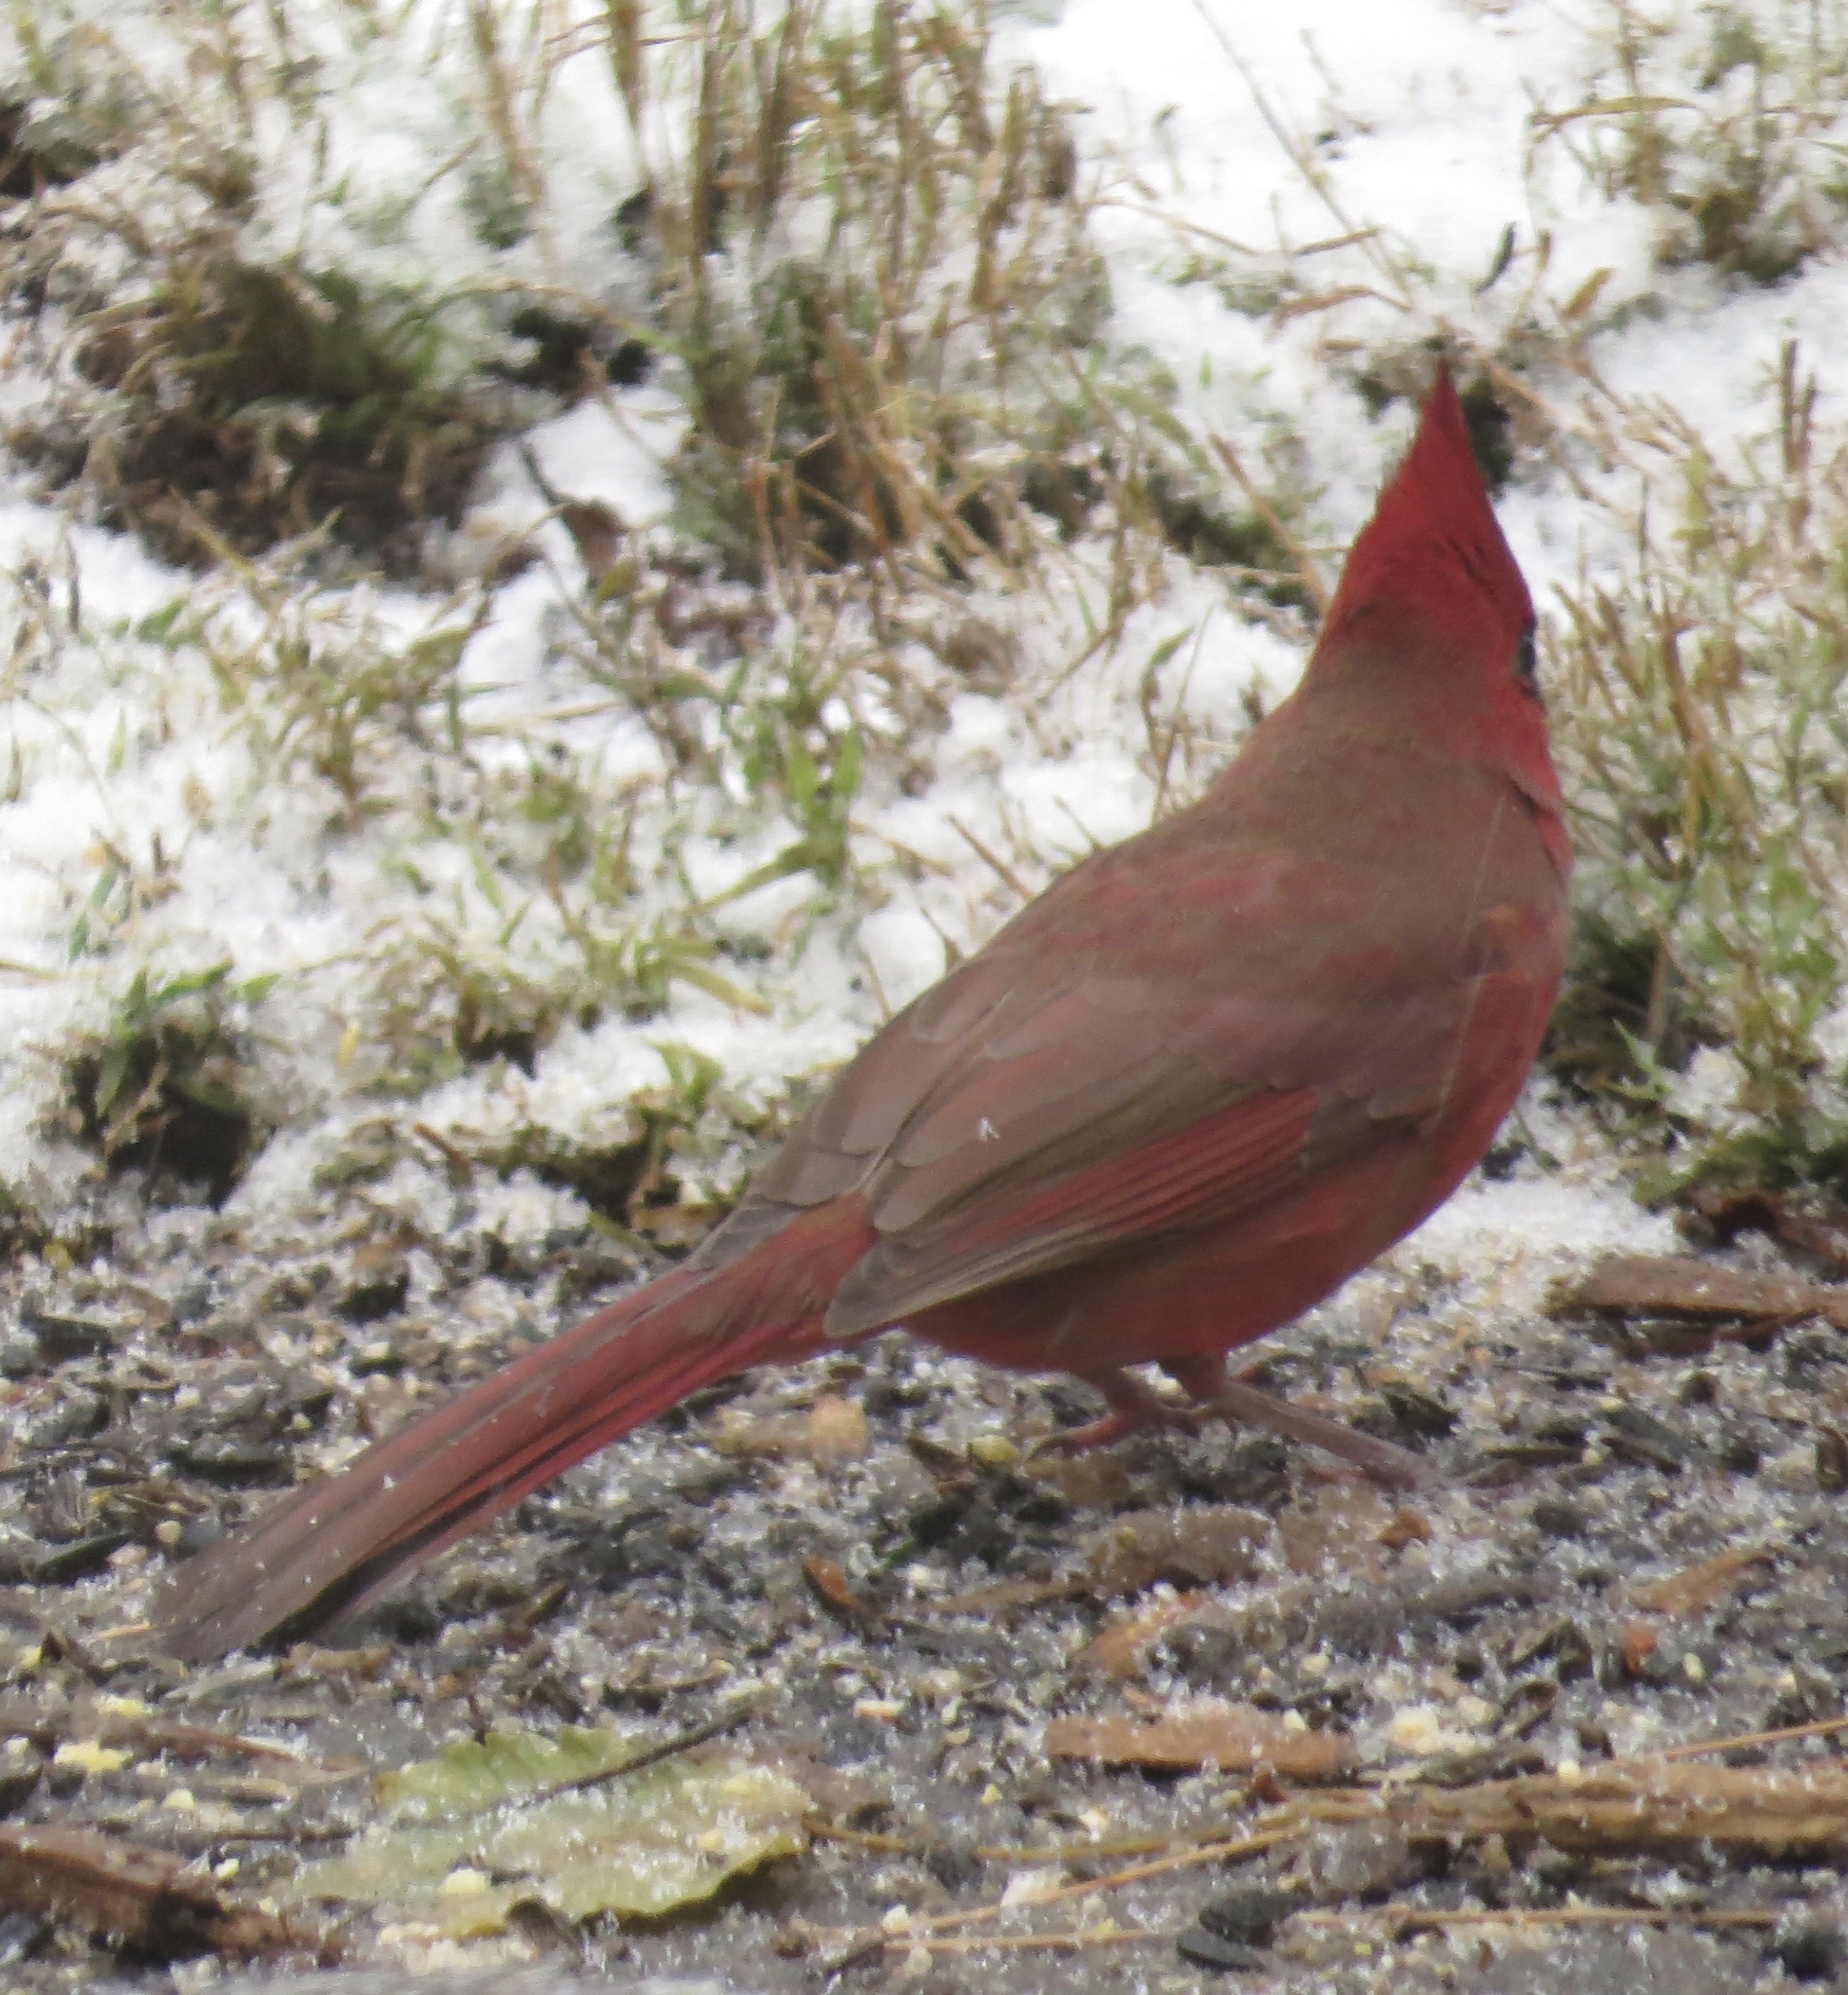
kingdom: Animalia
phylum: Chordata
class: Aves
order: Passeriformes
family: Cardinalidae
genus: Cardinalis
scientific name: Cardinalis cardinalis
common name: Northern cardinal
